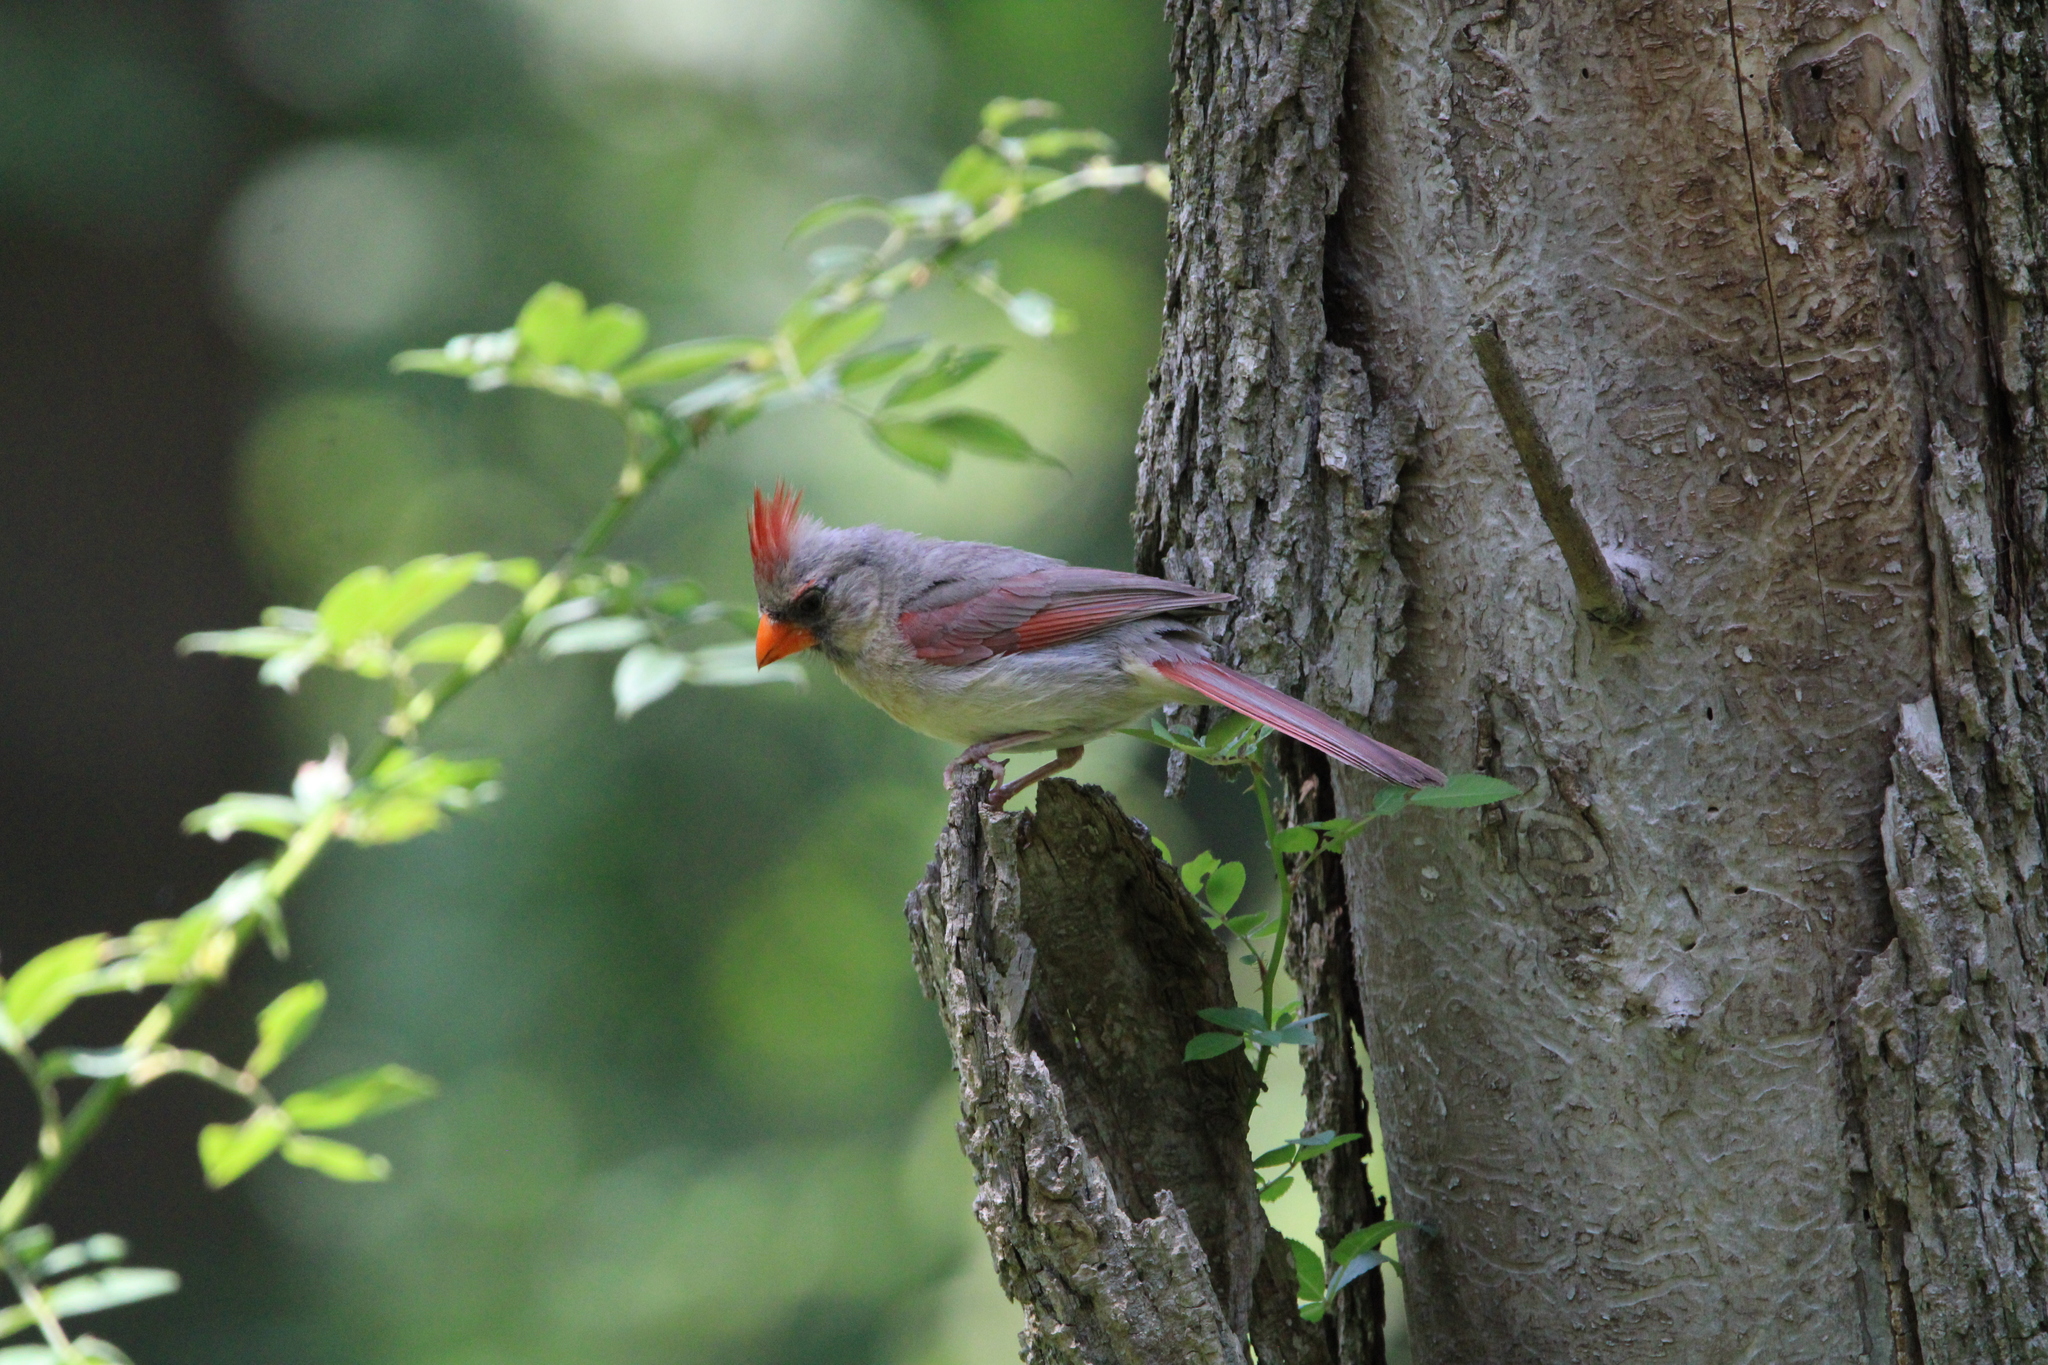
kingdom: Animalia
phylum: Chordata
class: Aves
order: Passeriformes
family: Cardinalidae
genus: Cardinalis
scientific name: Cardinalis cardinalis
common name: Northern cardinal
